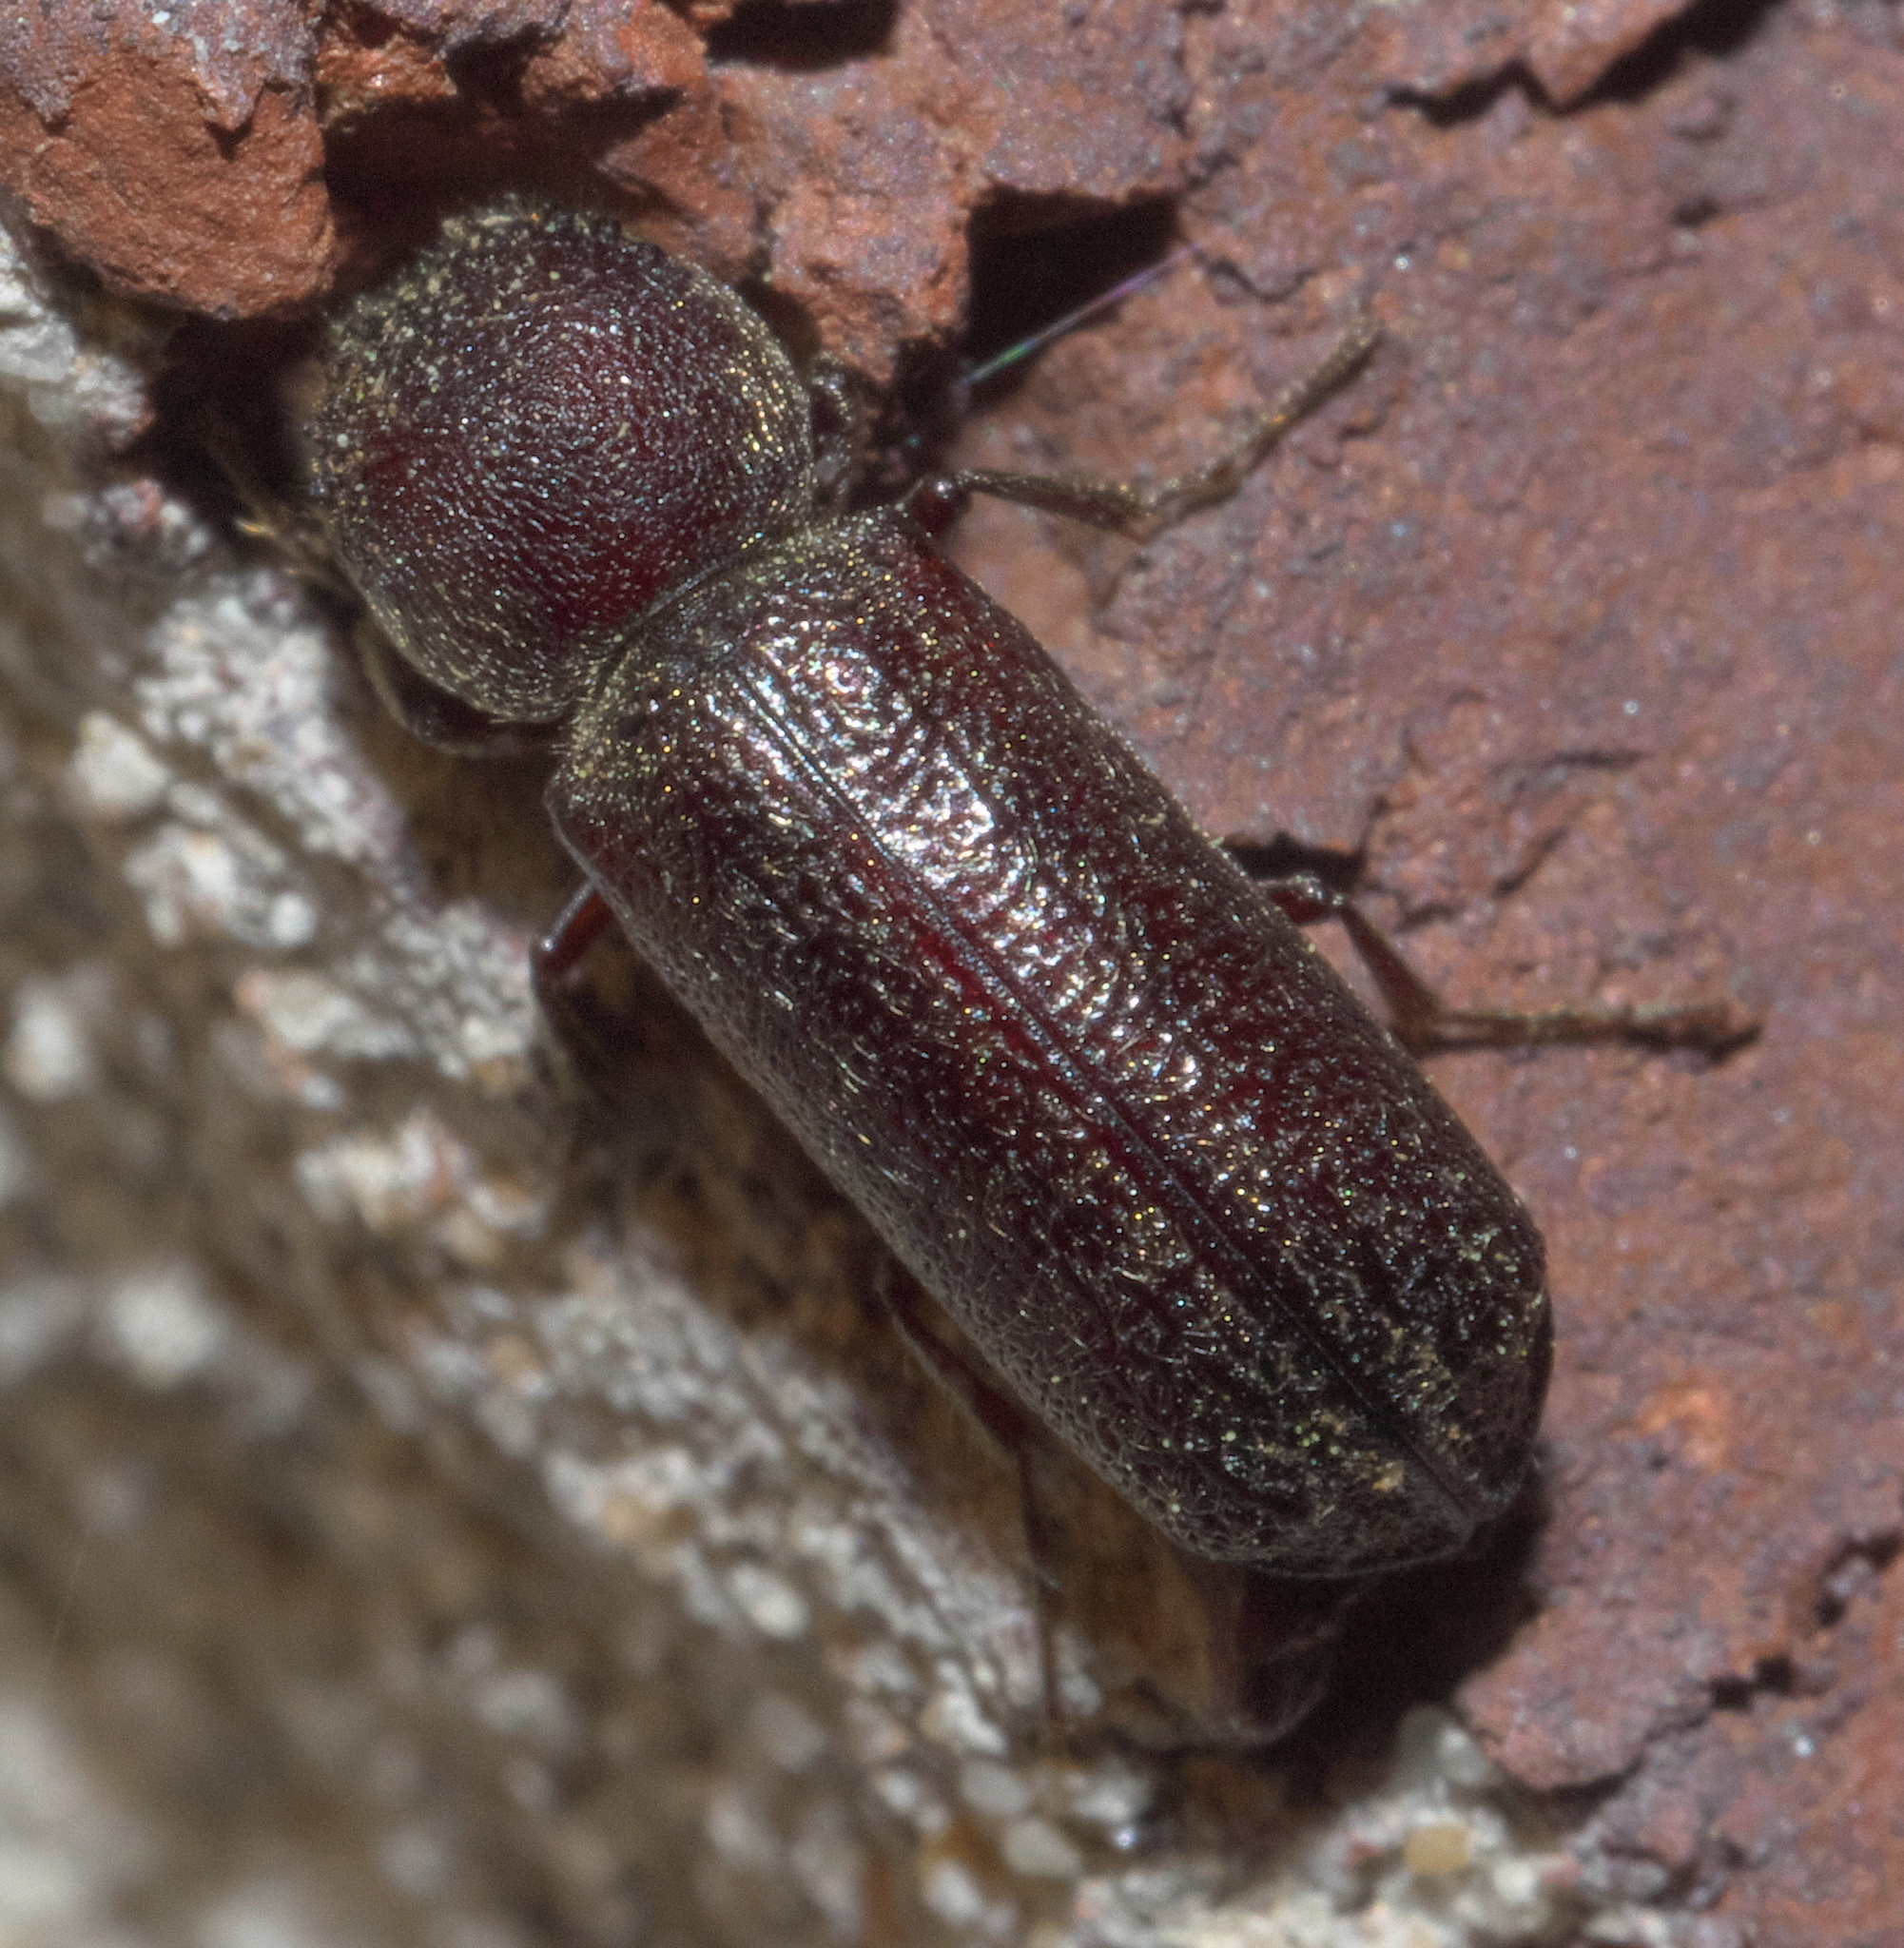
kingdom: Animalia
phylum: Arthropoda
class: Insecta
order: Coleoptera
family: Bostrichidae
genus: Amphicerus
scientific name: Amphicerus bicaudatus
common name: Apple twig borer
